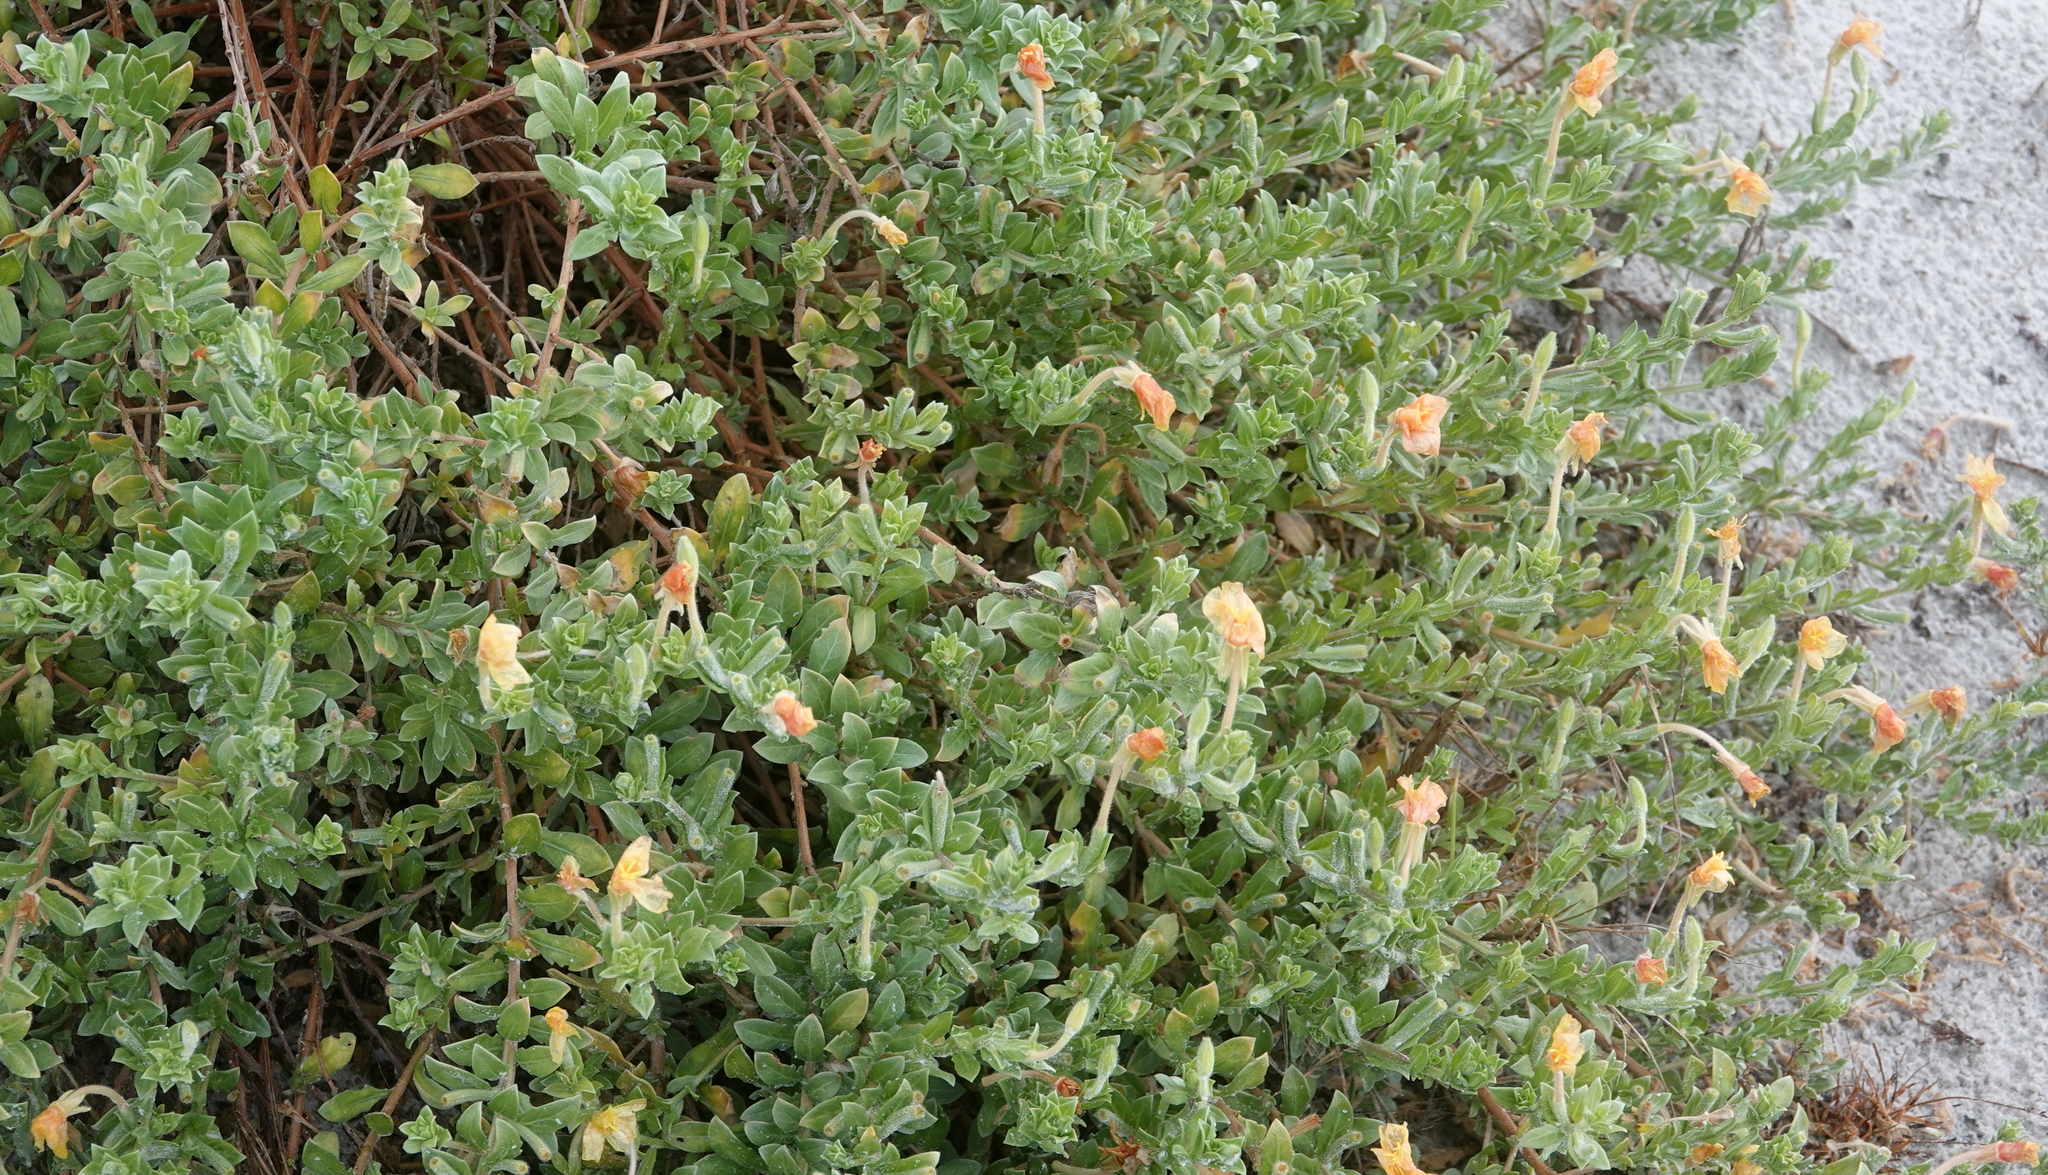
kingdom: Plantae
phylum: Tracheophyta
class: Magnoliopsida
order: Myrtales
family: Onagraceae
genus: Oenothera
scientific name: Oenothera humifusa
